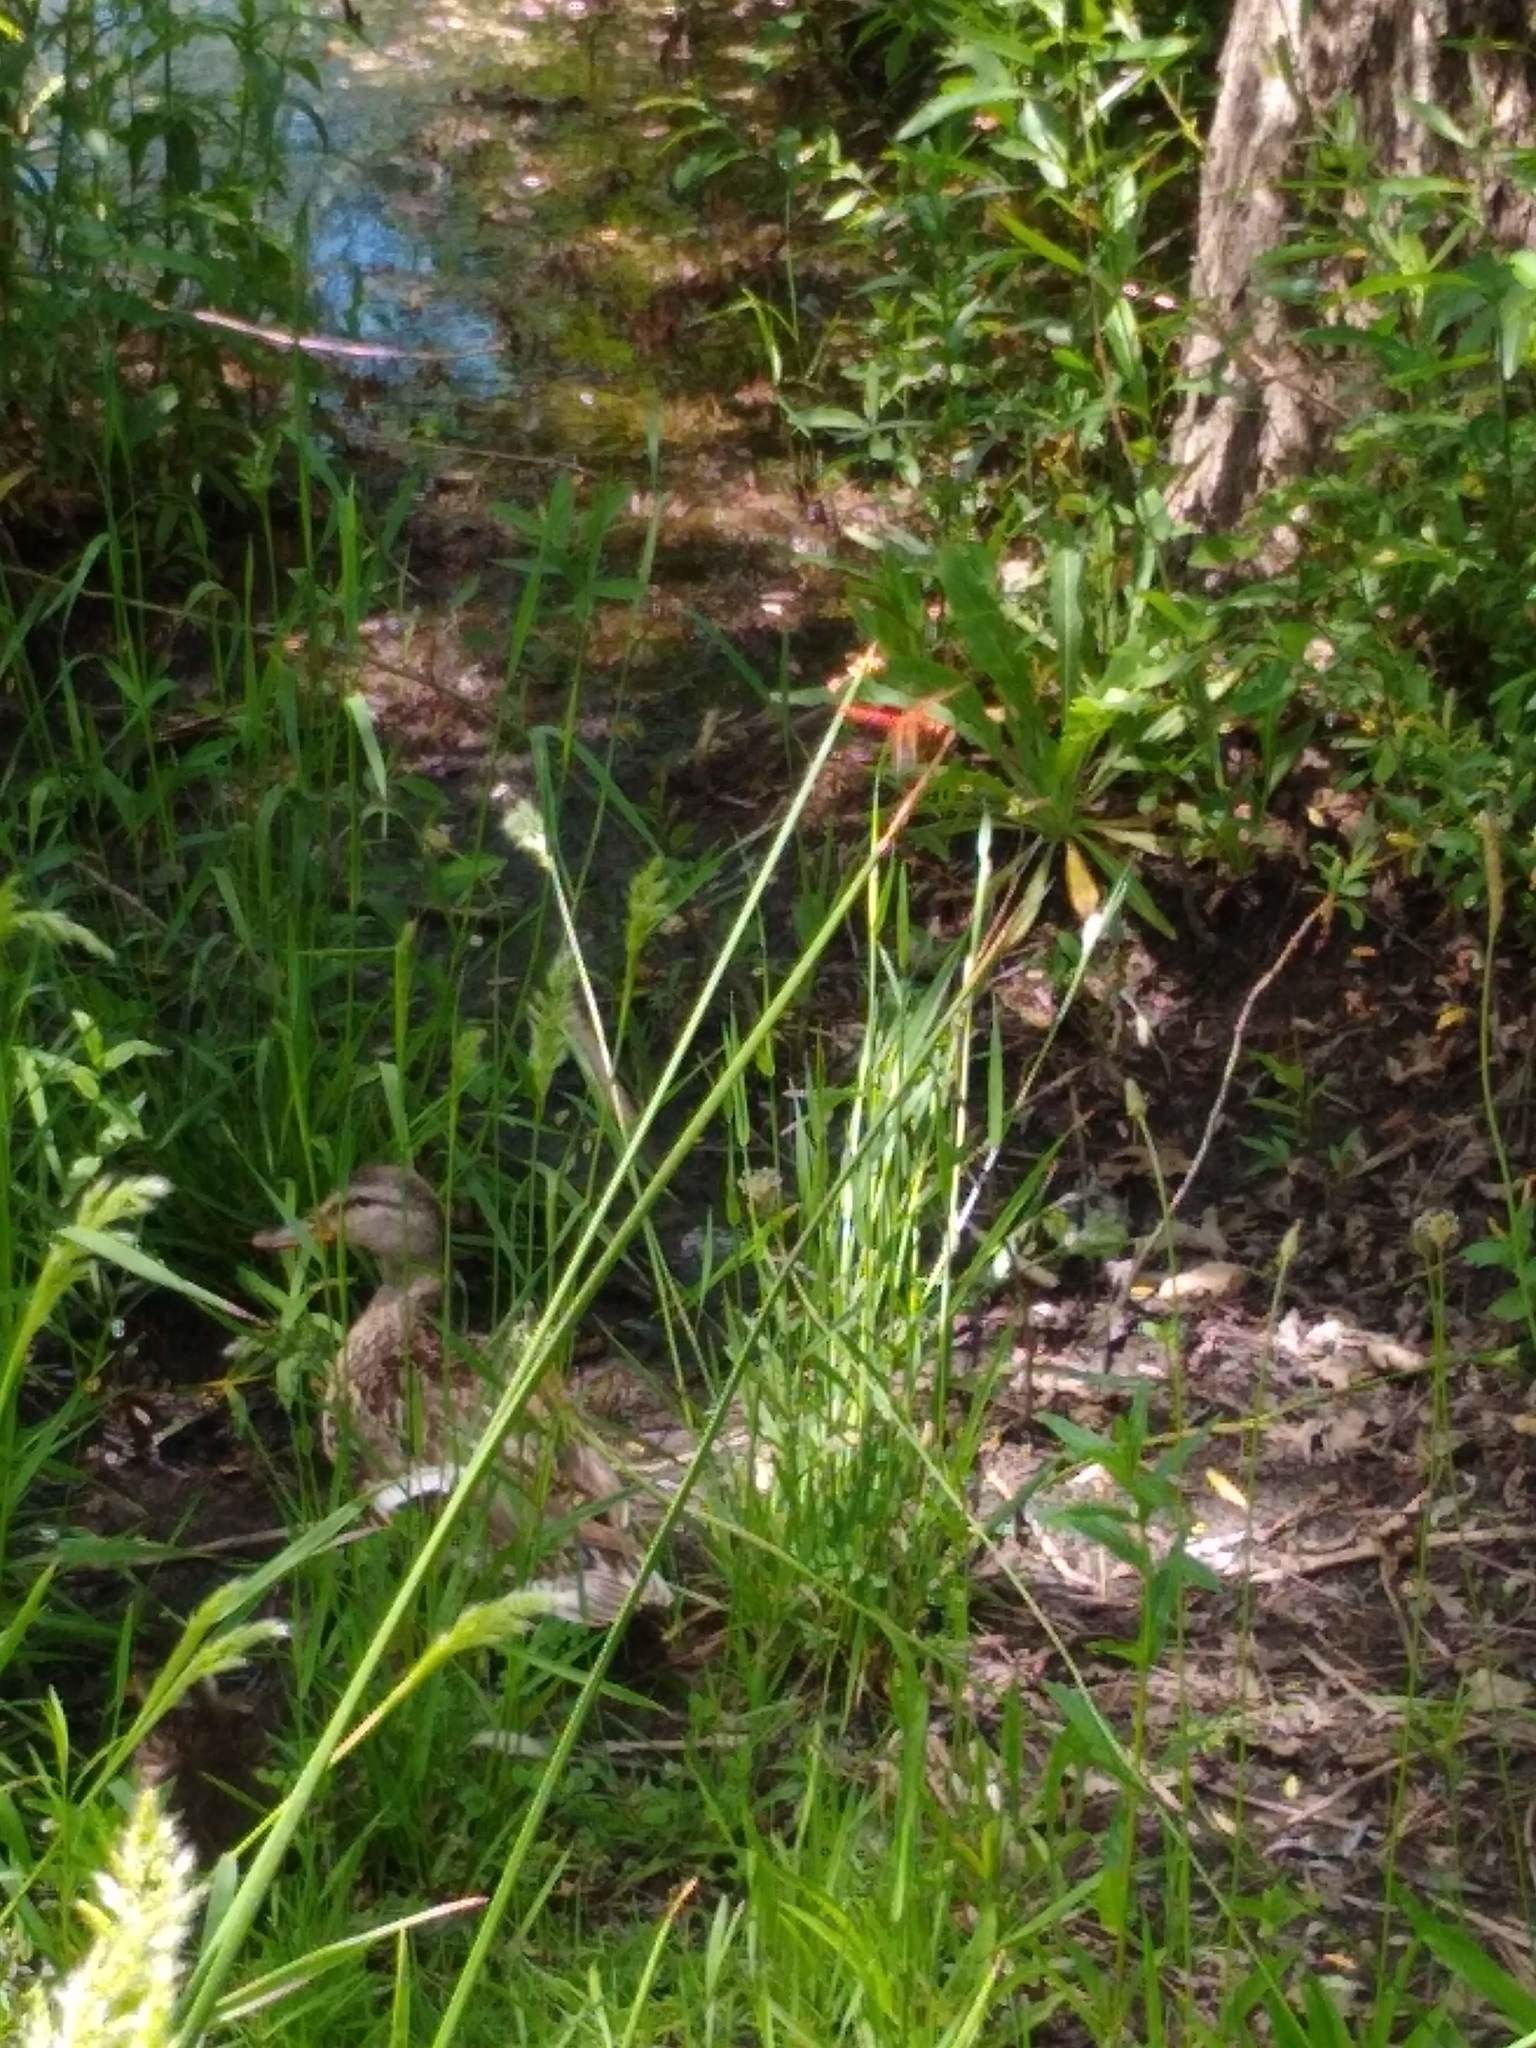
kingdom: Animalia
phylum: Chordata
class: Aves
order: Anseriformes
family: Anatidae
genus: Anas
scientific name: Anas platyrhynchos
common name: Mallard
